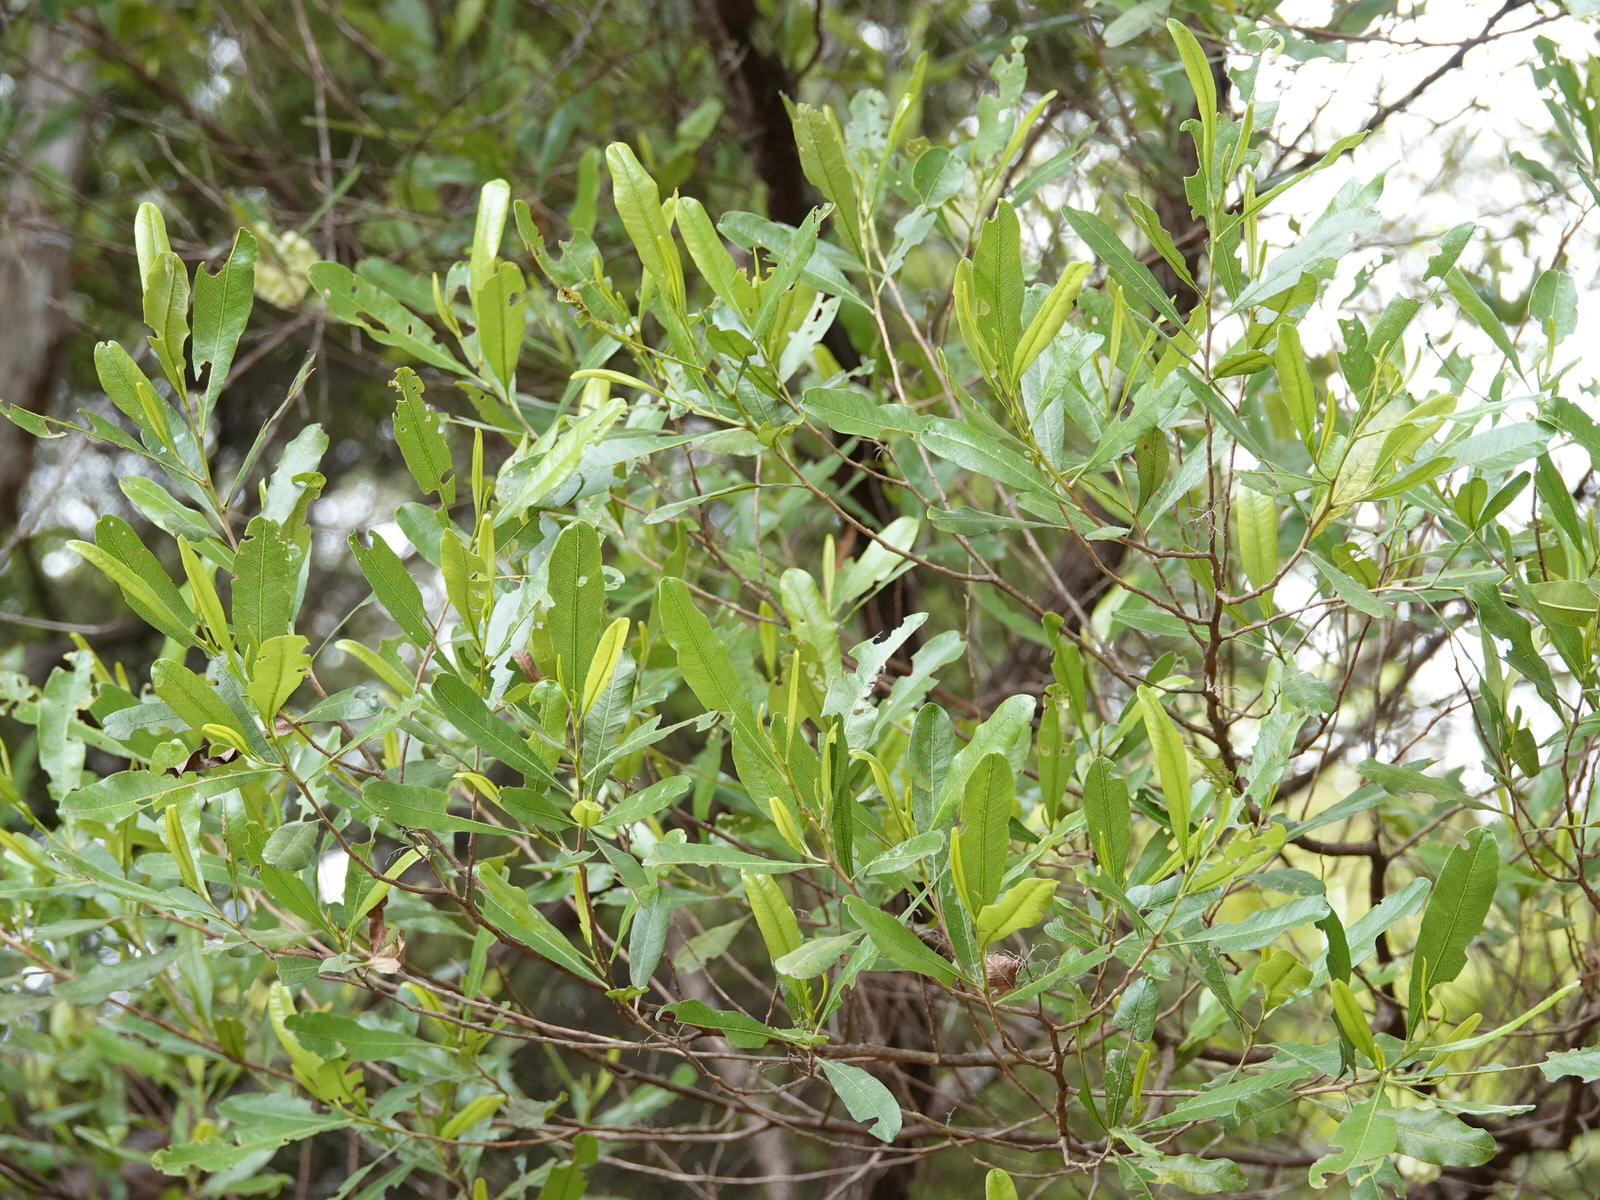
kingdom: Plantae
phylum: Tracheophyta
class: Magnoliopsida
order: Sapindales
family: Sapindaceae
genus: Dodonaea
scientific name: Dodonaea viscosa
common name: Hopbush
